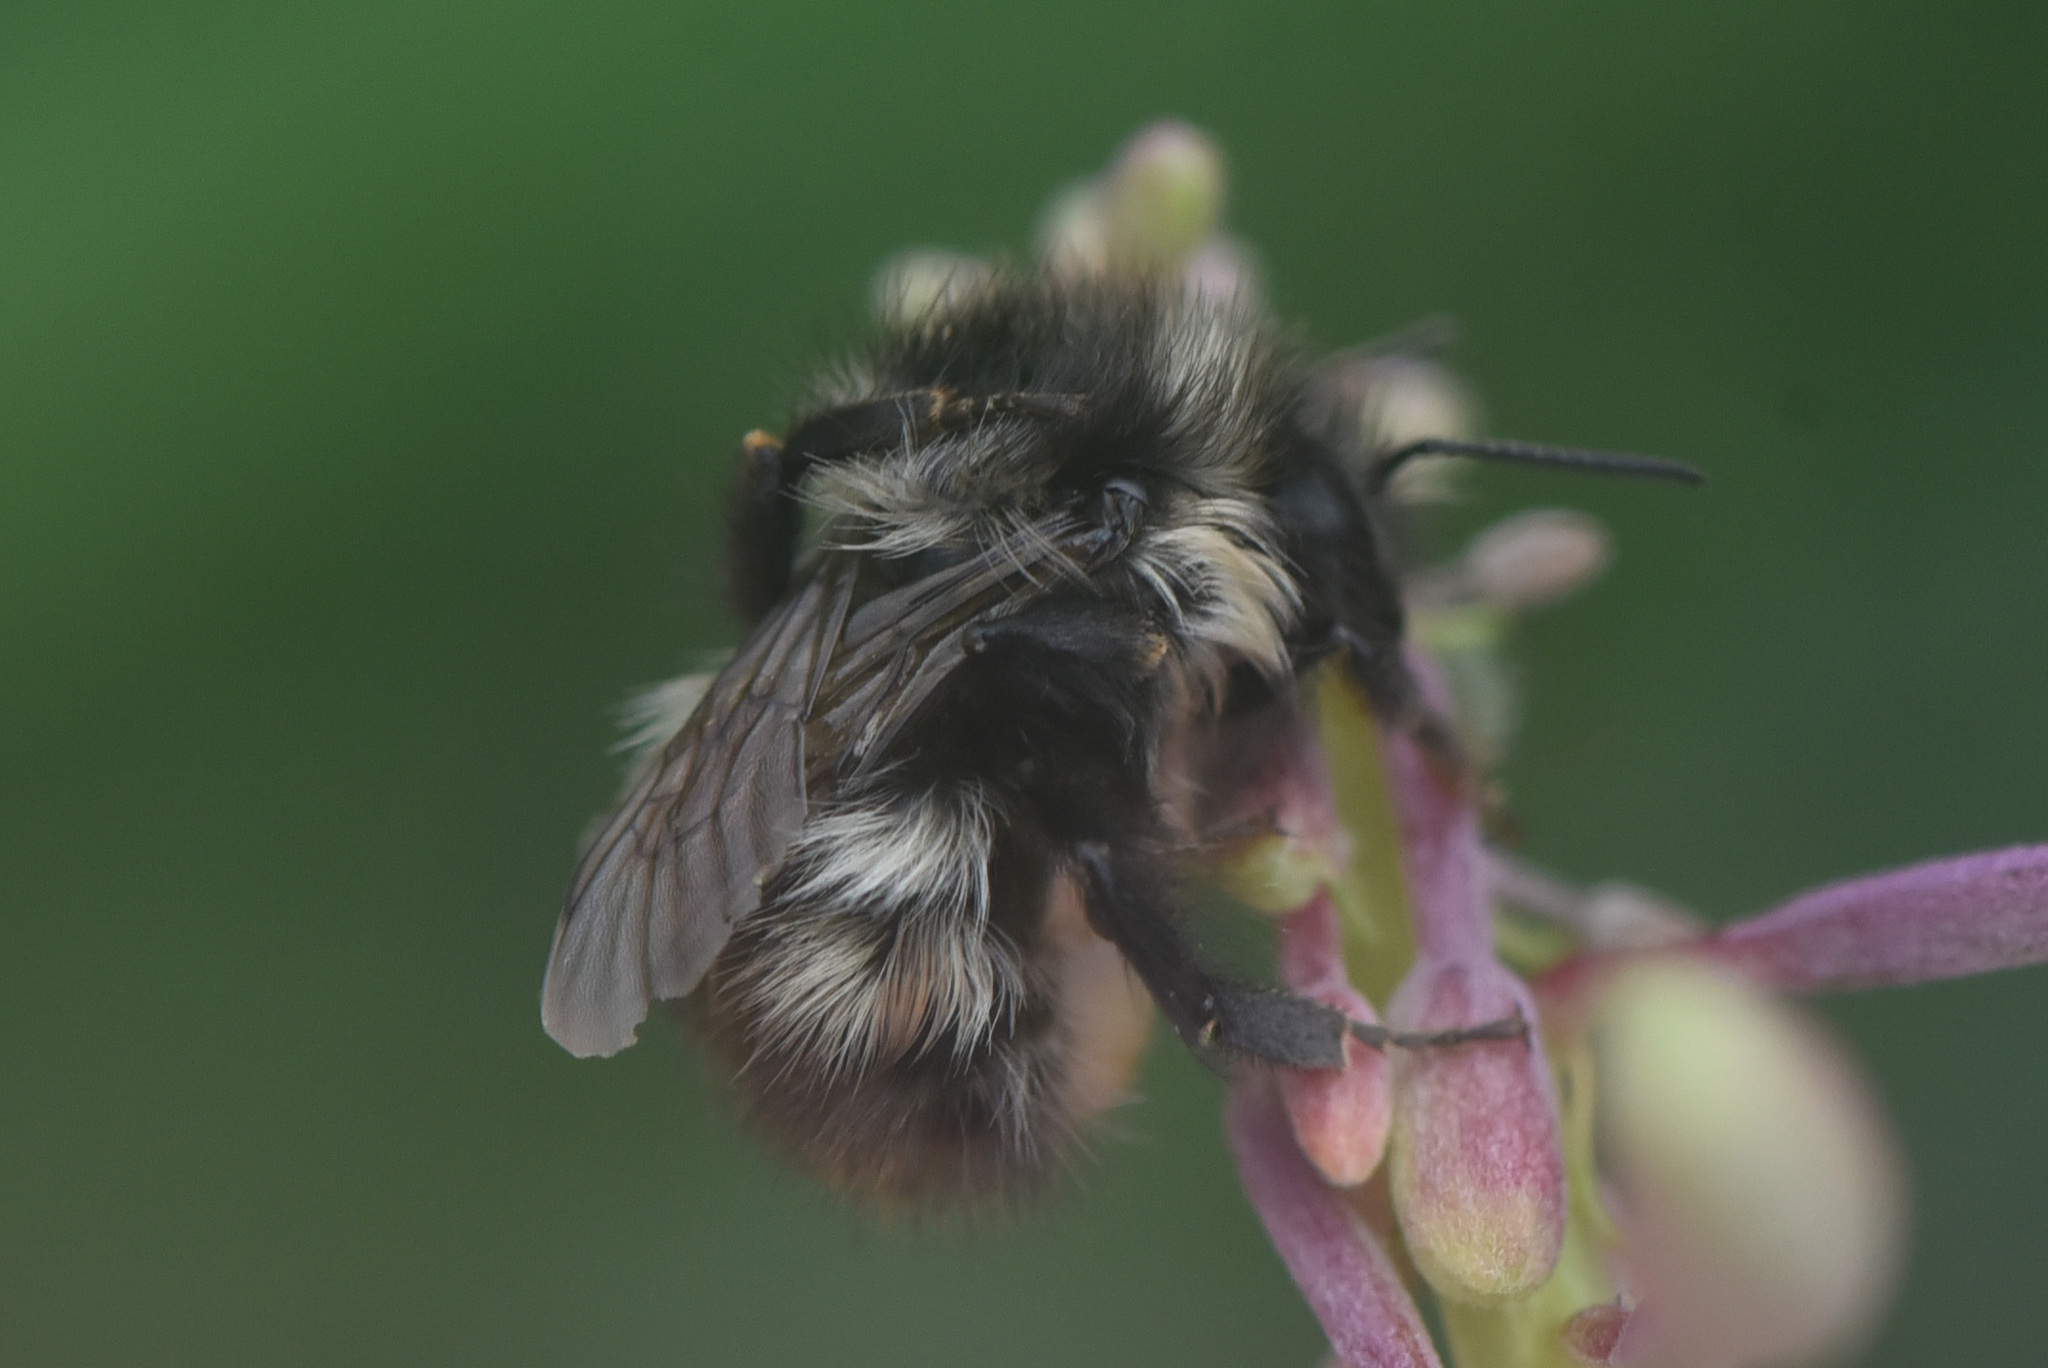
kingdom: Animalia
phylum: Arthropoda
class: Insecta
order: Hymenoptera
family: Apidae
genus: Bombus
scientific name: Bombus flavifrons
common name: Yellow head bumble bee
